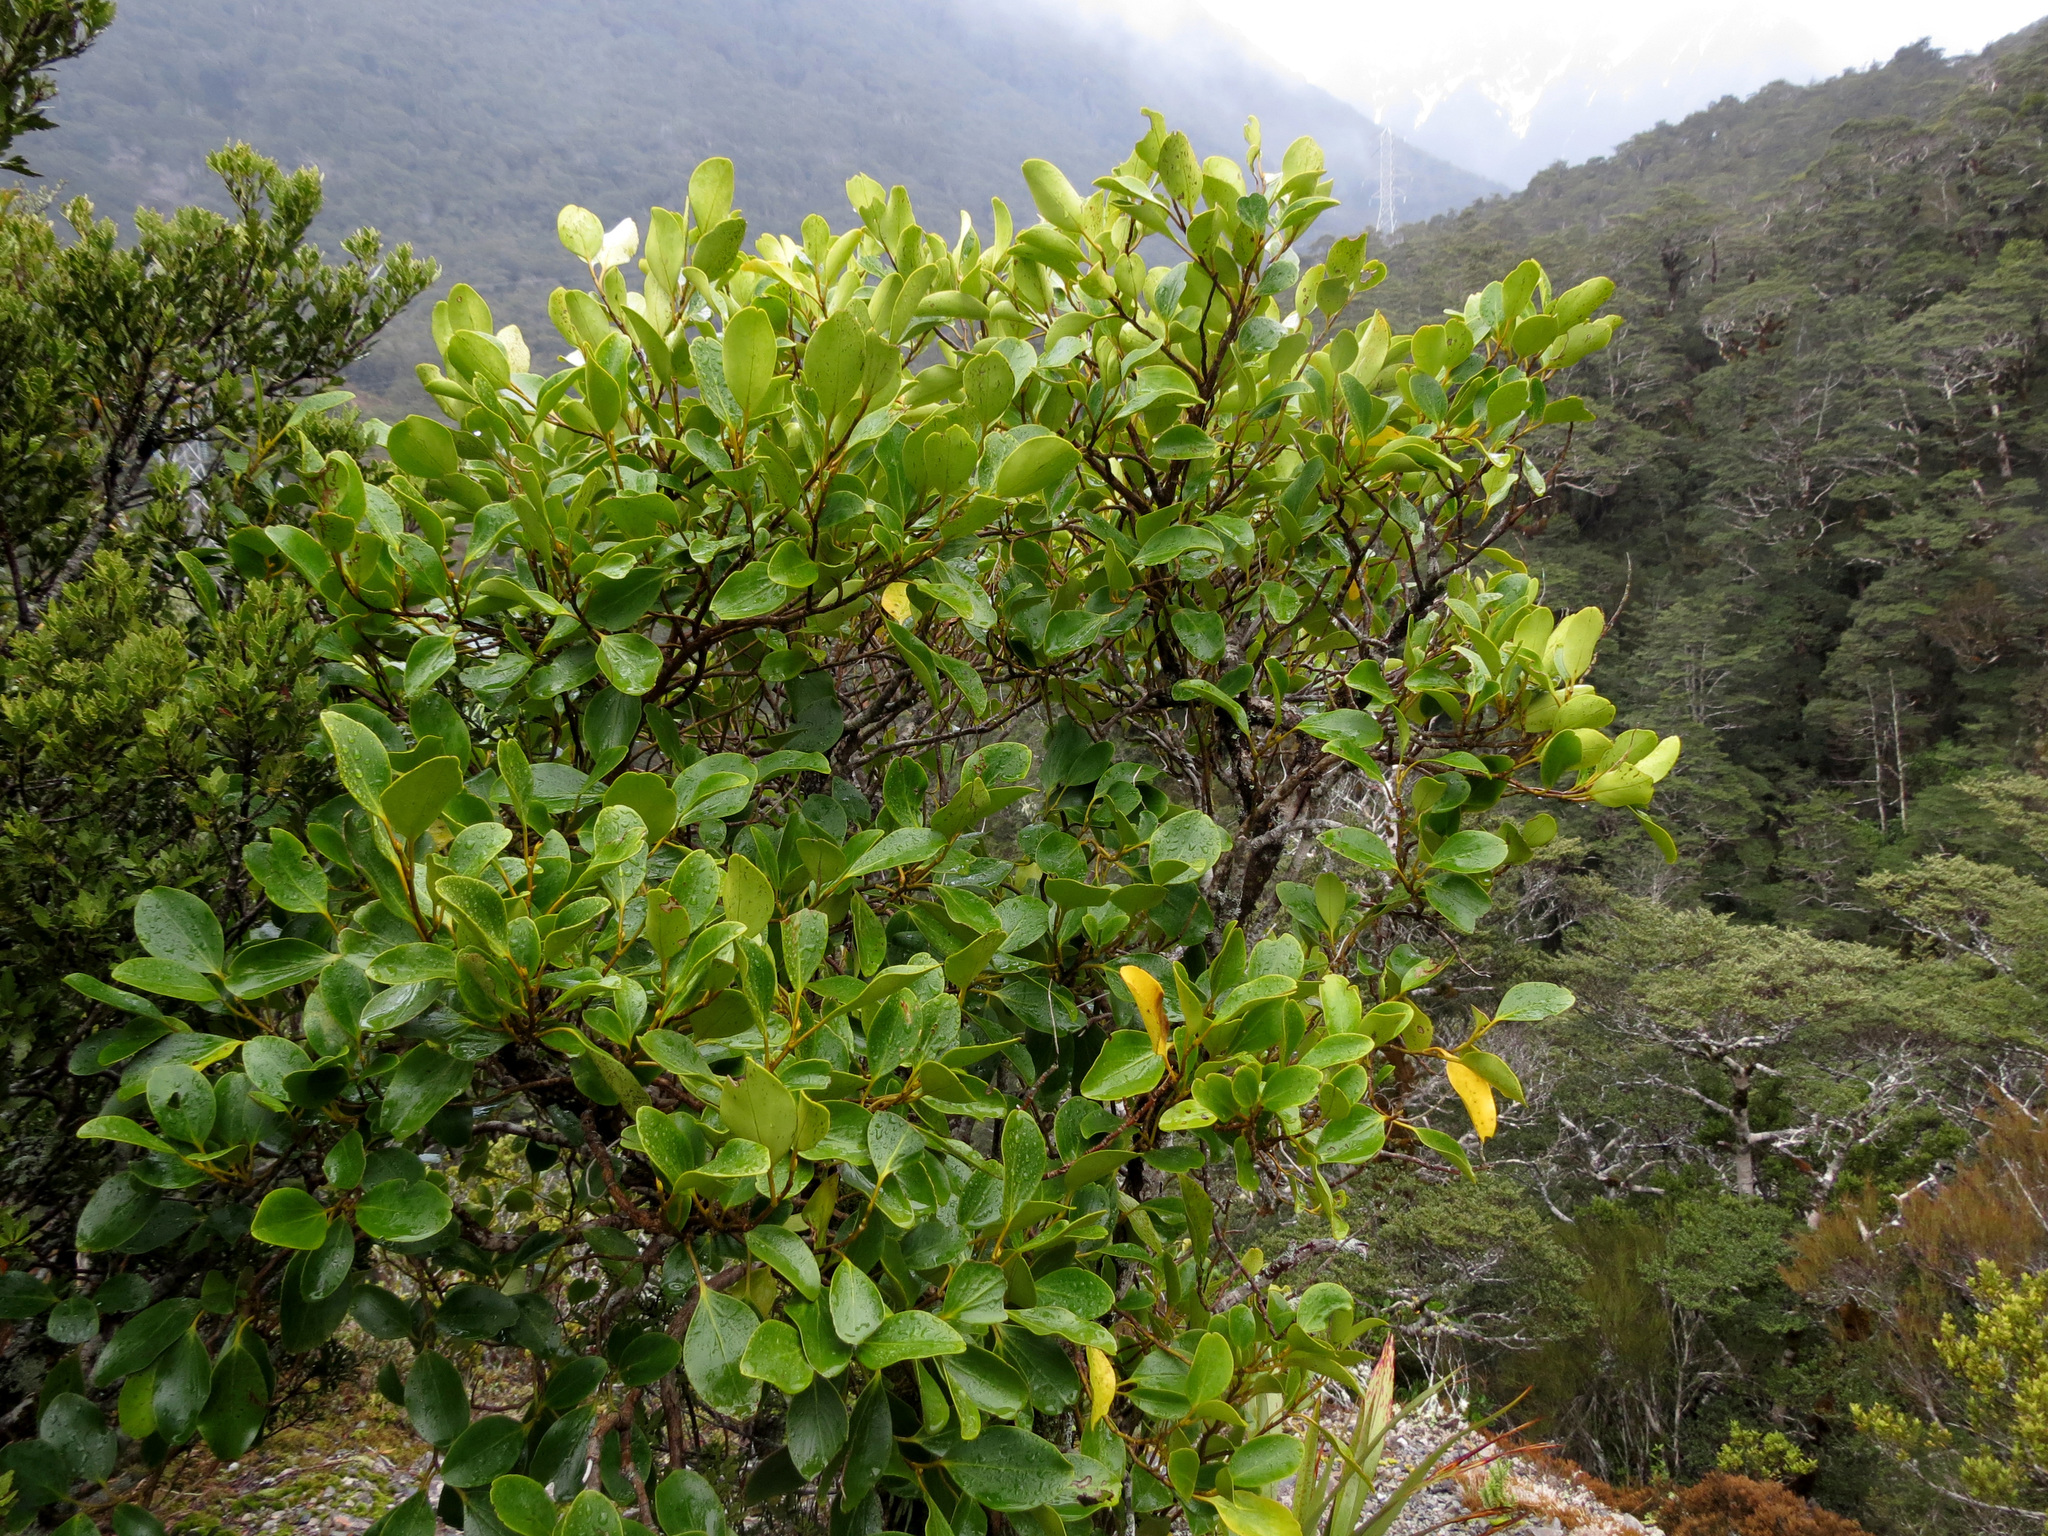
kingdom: Plantae
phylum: Tracheophyta
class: Magnoliopsida
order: Apiales
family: Griseliniaceae
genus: Griselinia
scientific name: Griselinia littoralis
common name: New zealand broadleaf
